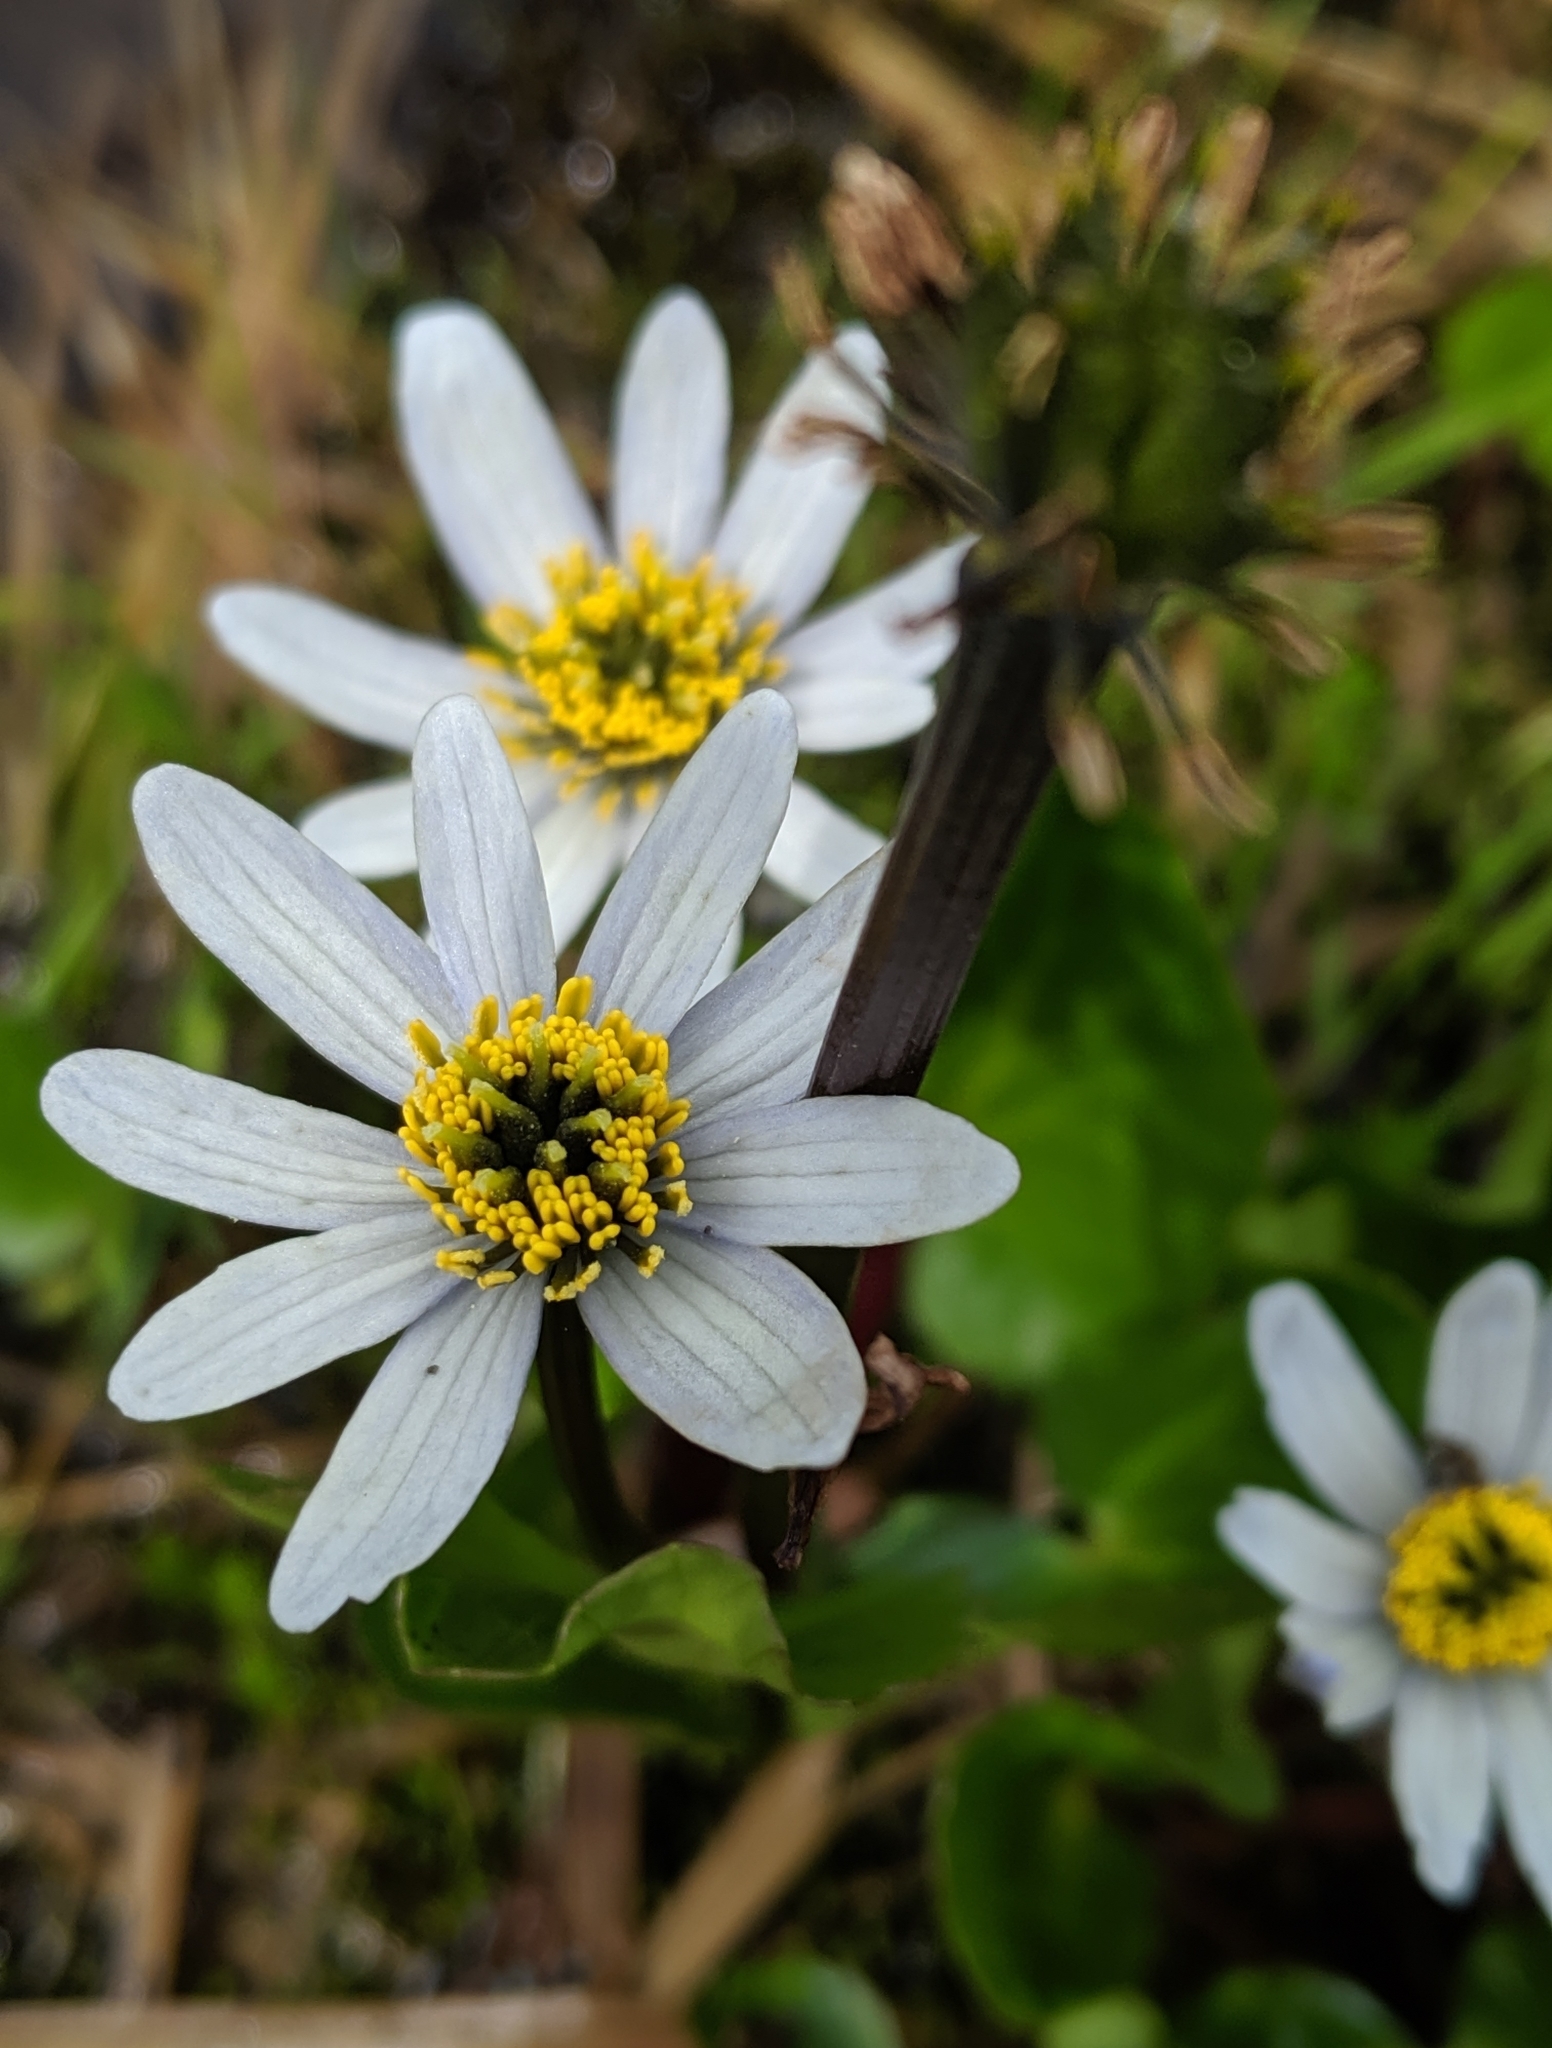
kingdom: Plantae
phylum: Tracheophyta
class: Magnoliopsida
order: Ranunculales
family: Ranunculaceae
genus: Caltha
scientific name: Caltha leptosepala
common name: Elkslip
